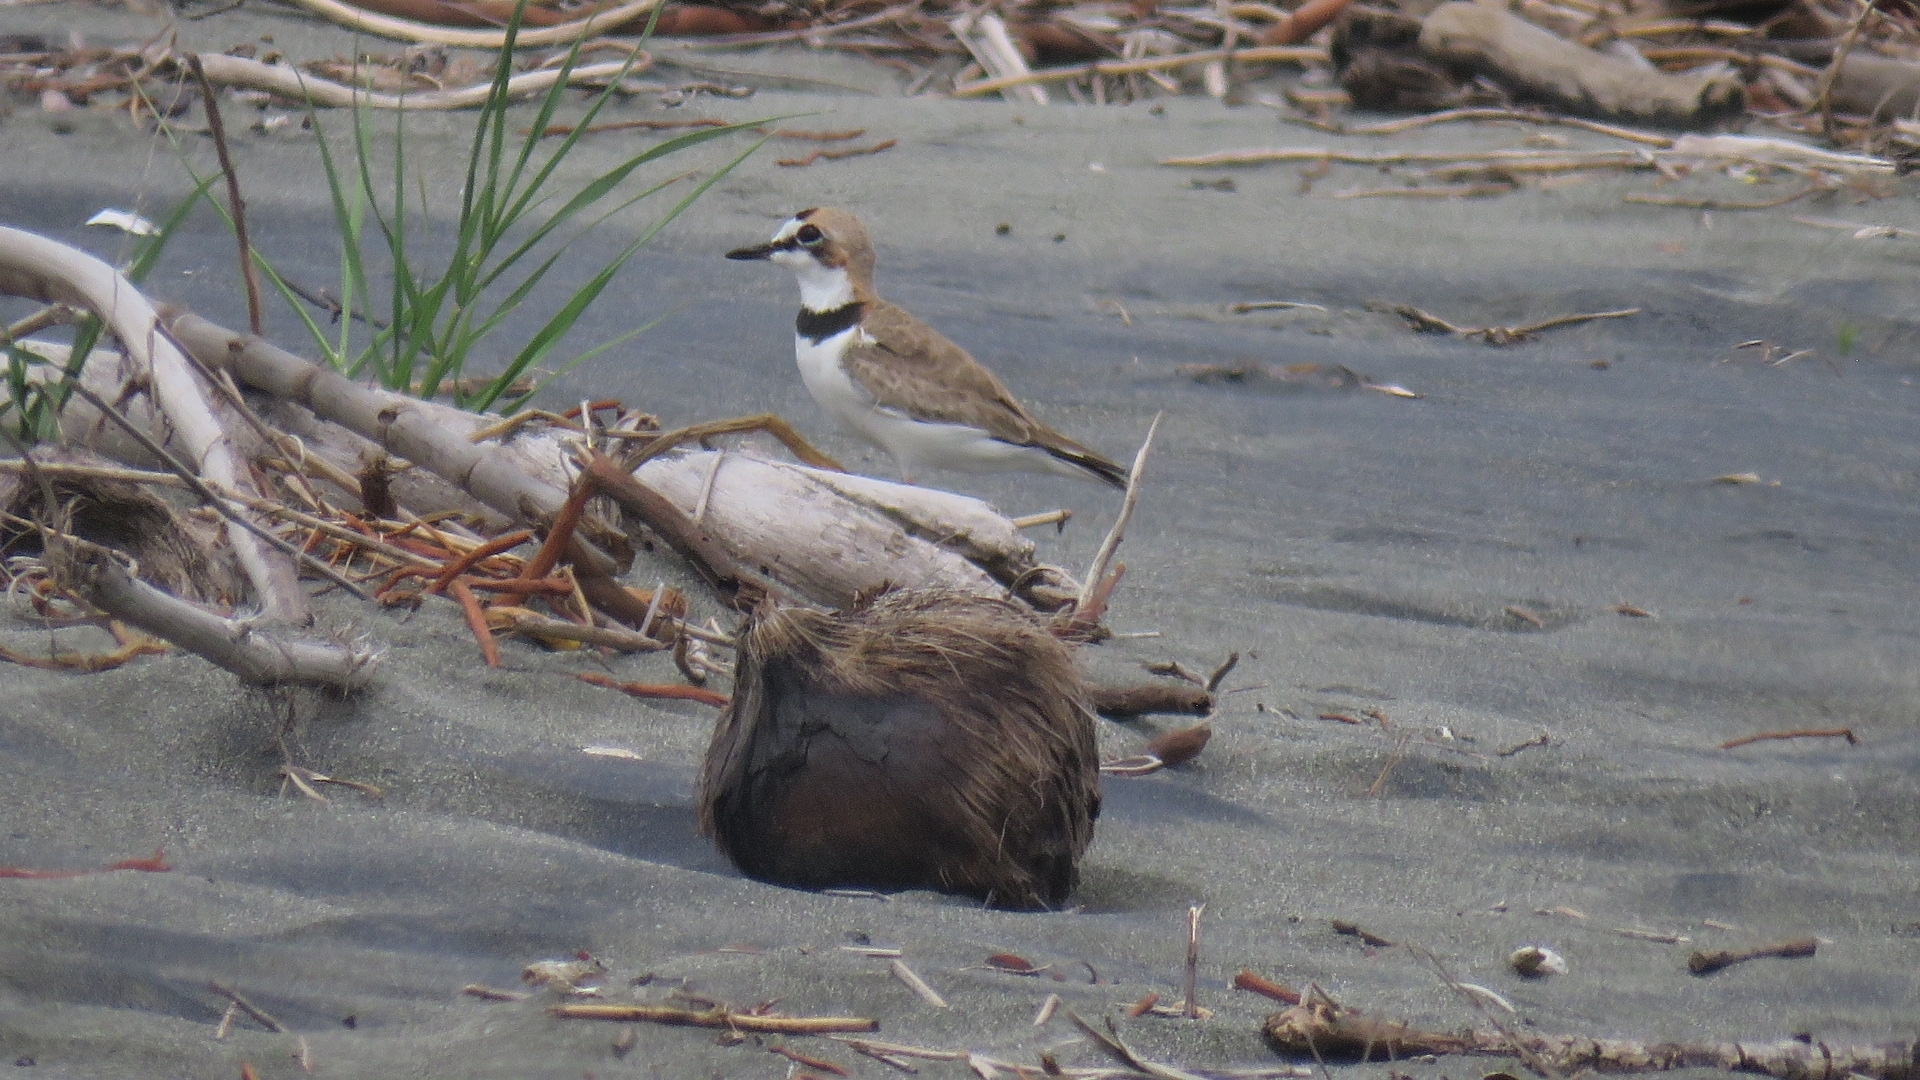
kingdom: Animalia
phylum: Chordata
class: Aves
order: Charadriiformes
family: Charadriidae
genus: Anarhynchus
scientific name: Anarhynchus
